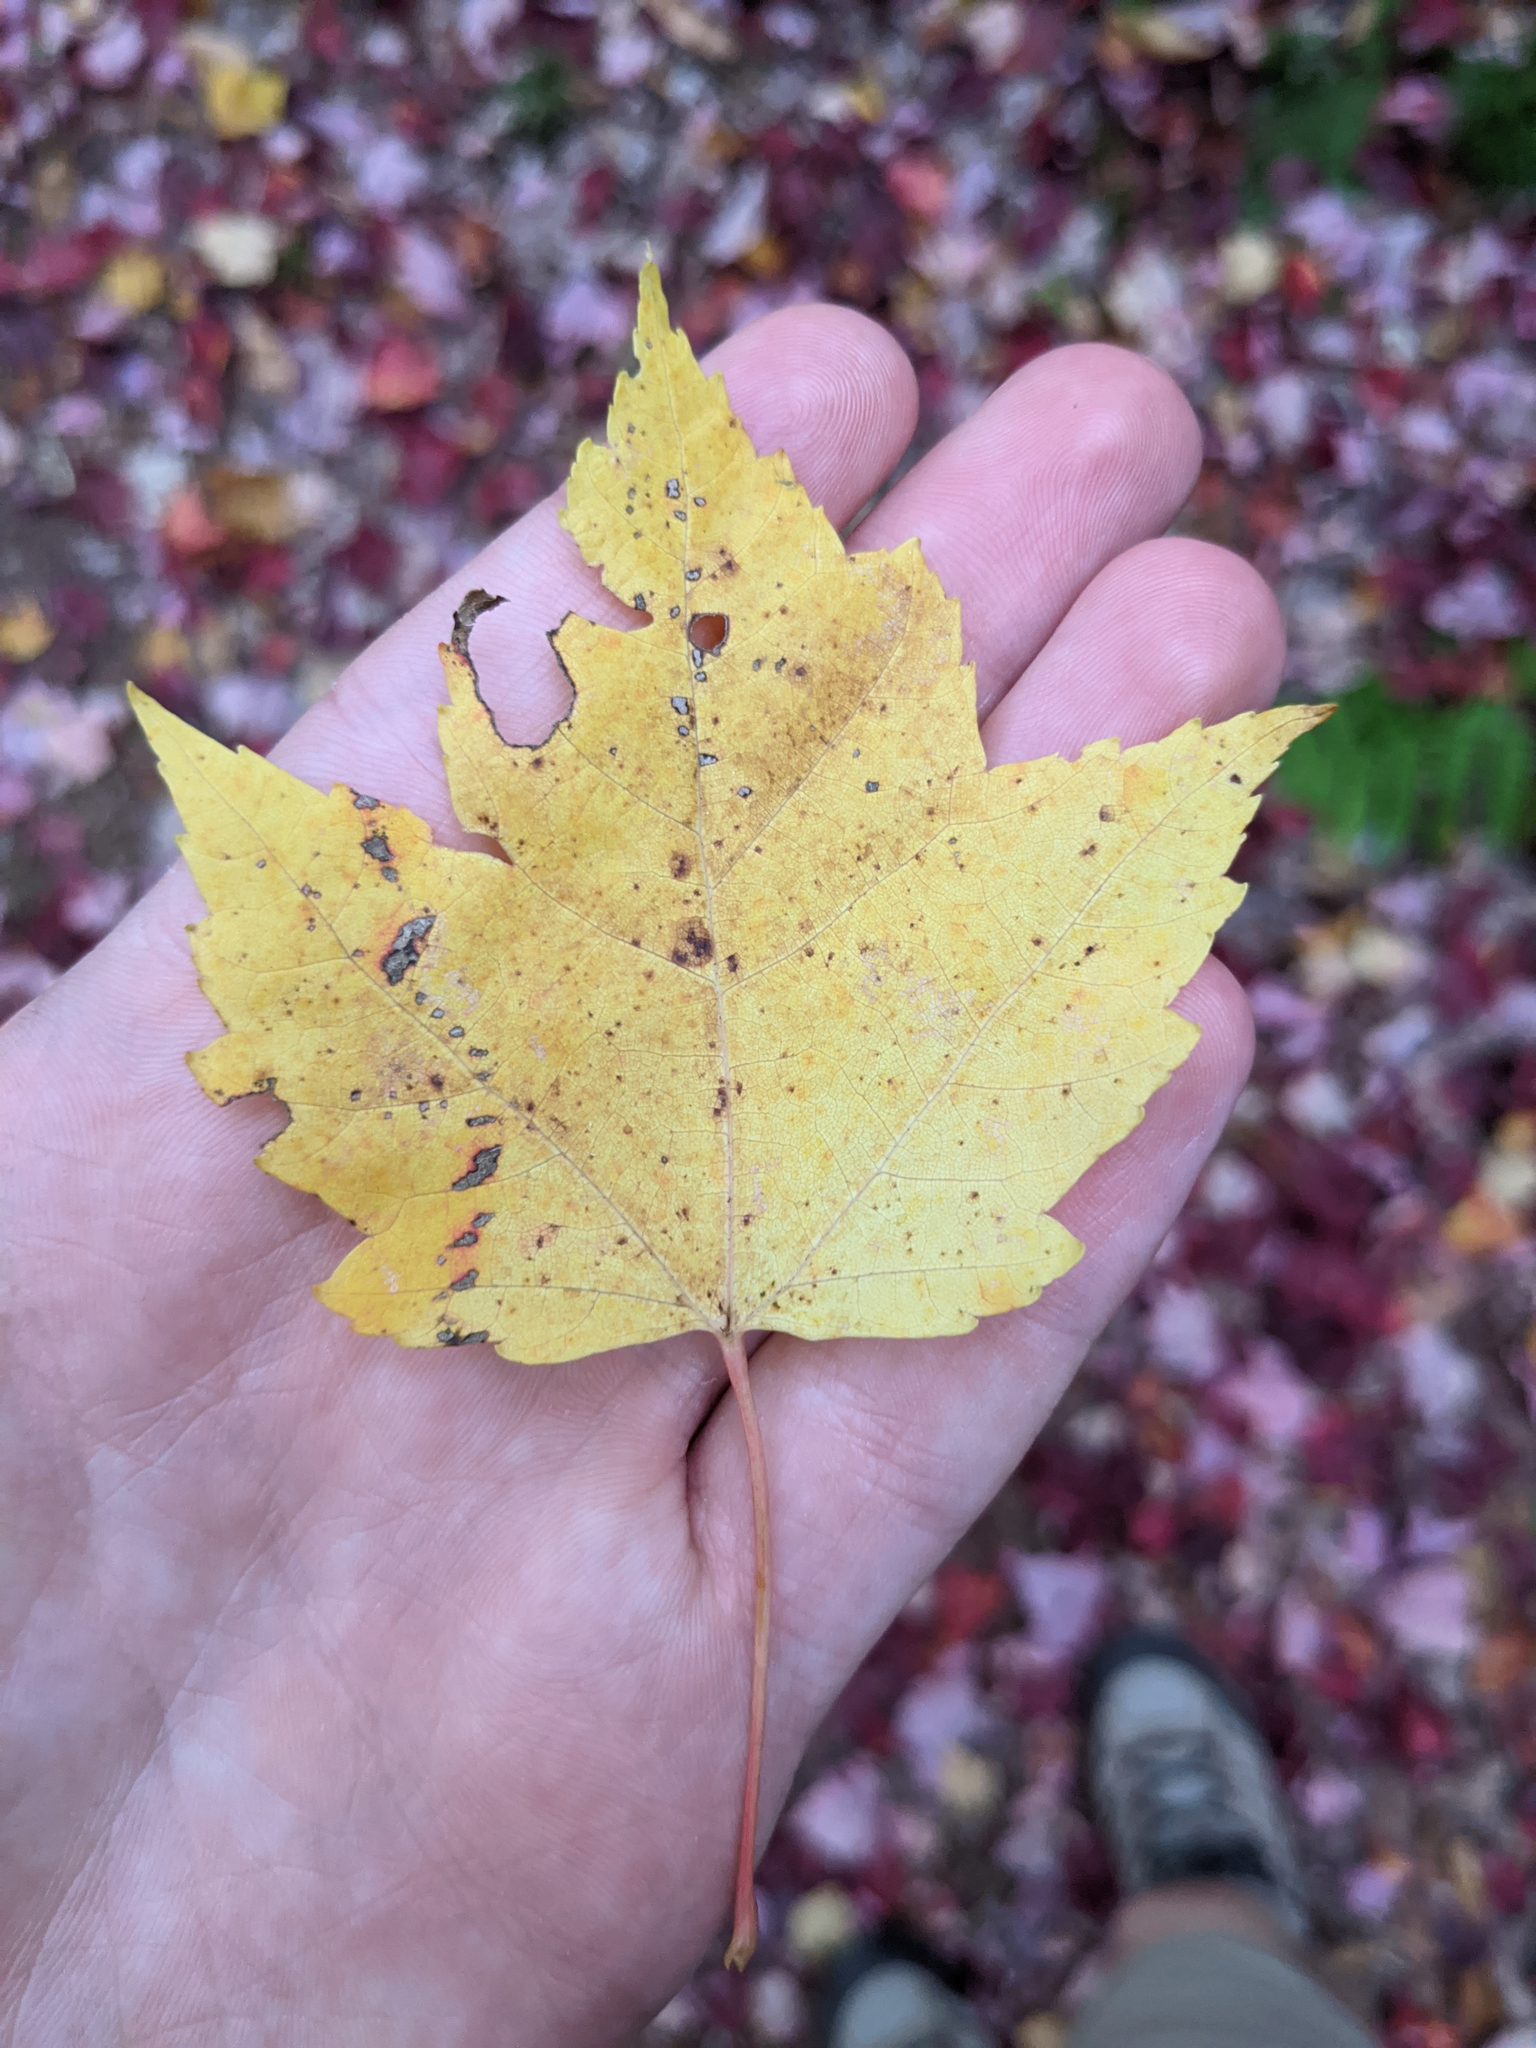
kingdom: Plantae
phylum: Tracheophyta
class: Magnoliopsida
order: Sapindales
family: Sapindaceae
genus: Acer
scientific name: Acer rubrum
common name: Red maple
